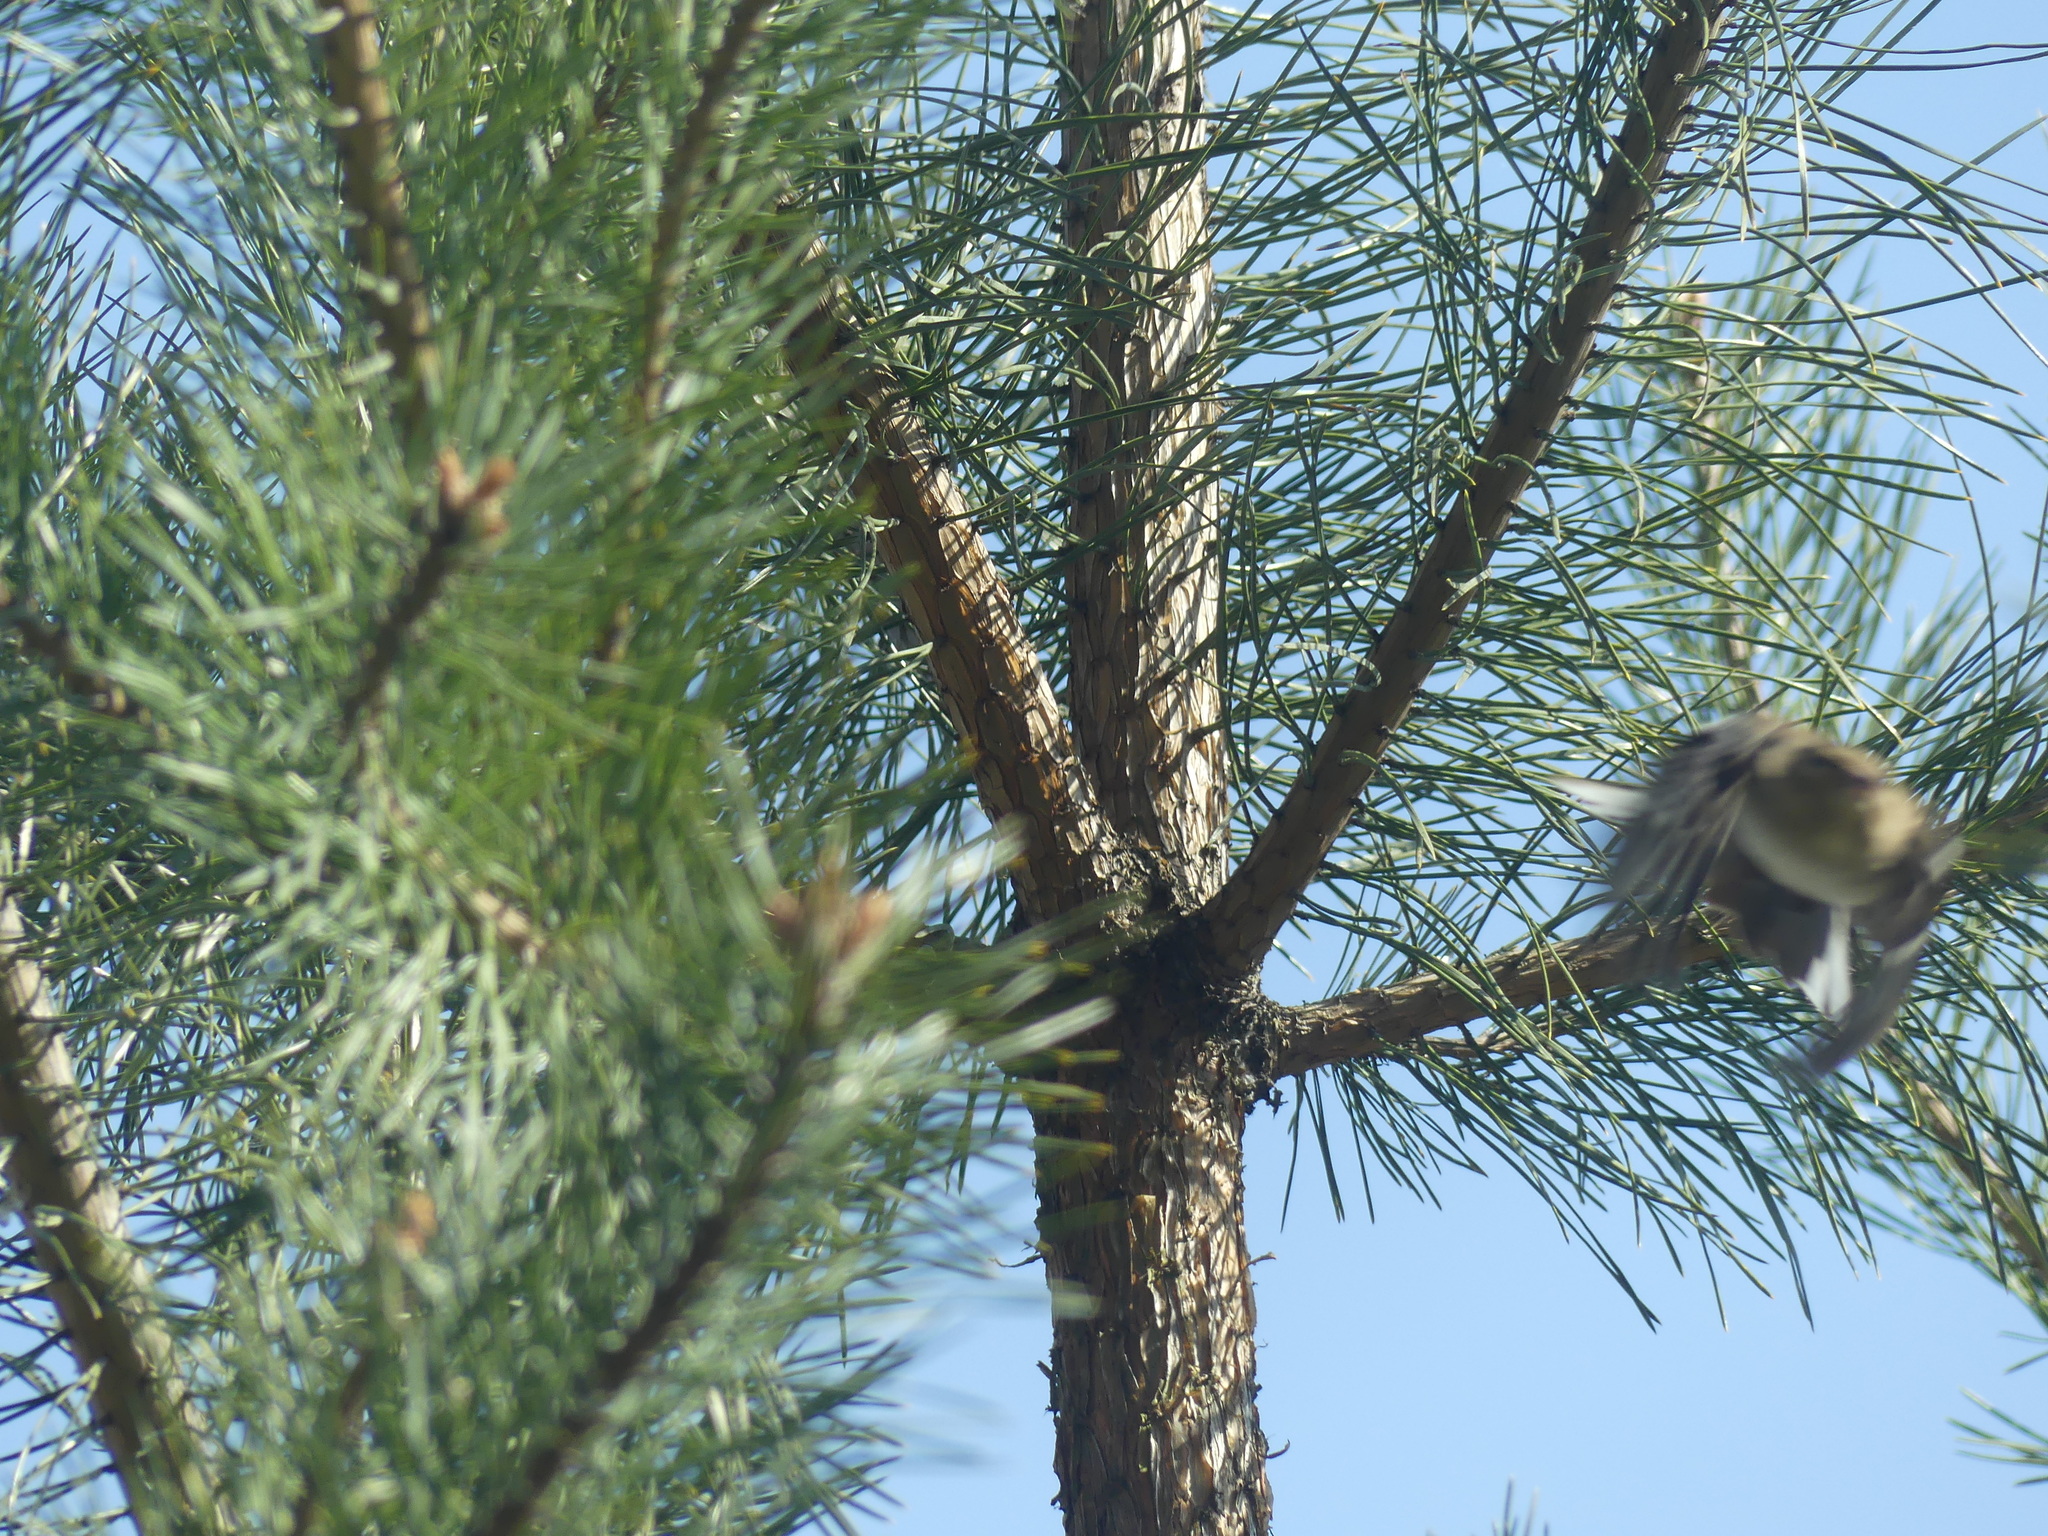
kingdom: Animalia
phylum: Chordata
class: Aves
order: Passeriformes
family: Fringillidae
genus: Fringilla
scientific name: Fringilla coelebs
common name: Common chaffinch
